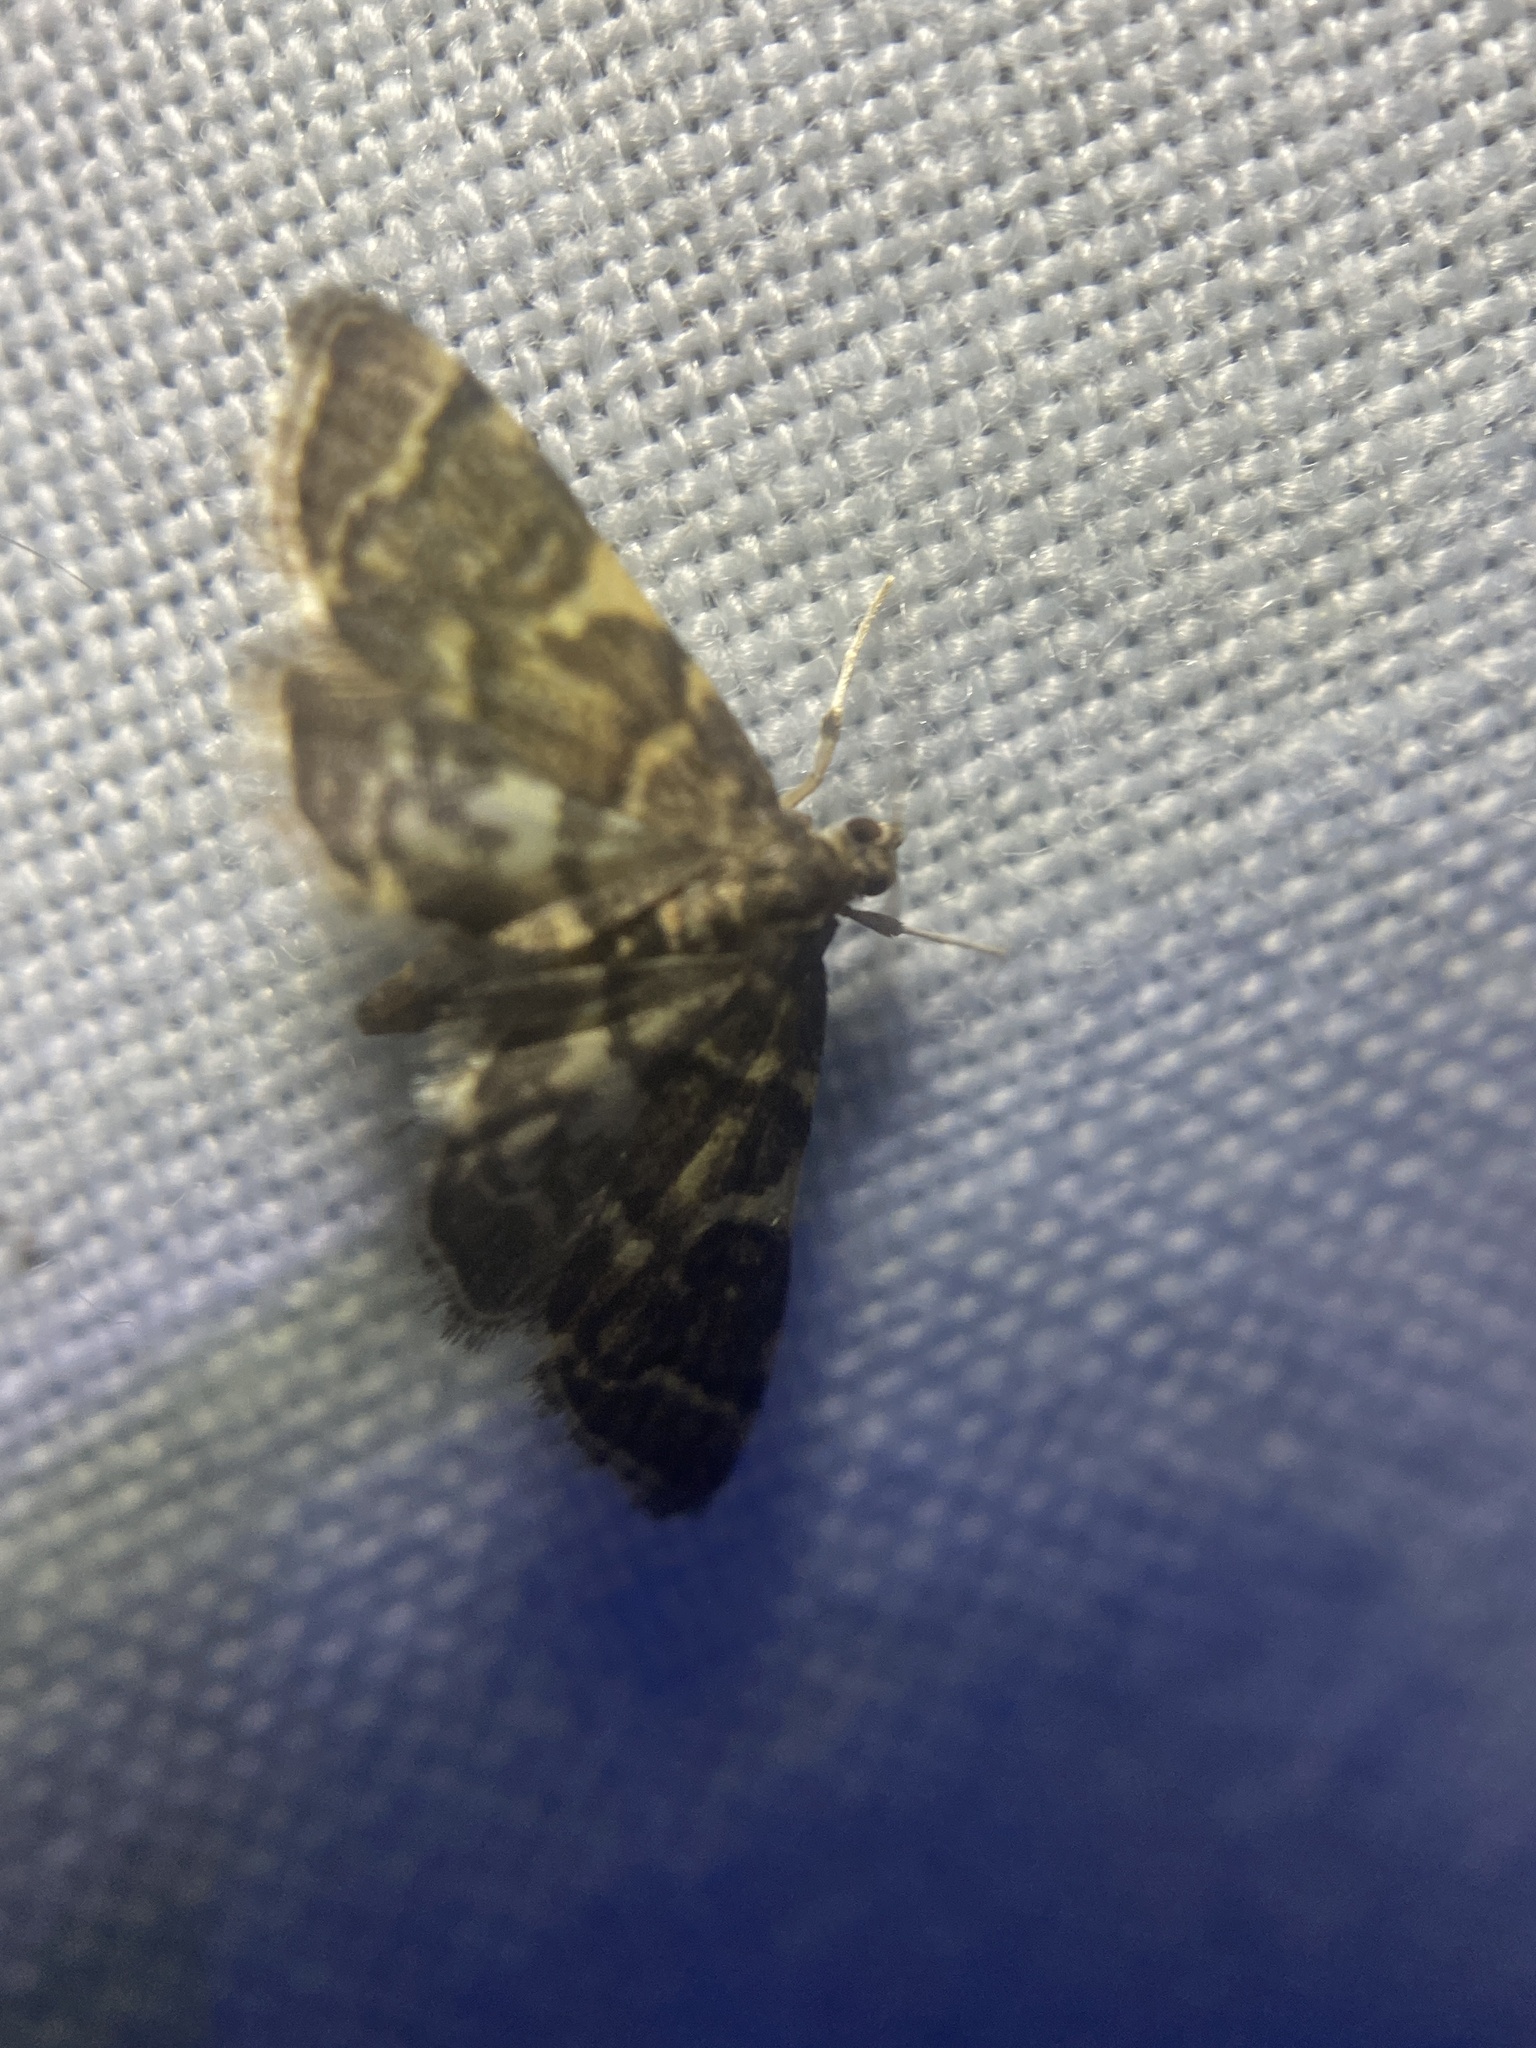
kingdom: Animalia
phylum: Arthropoda
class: Insecta
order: Lepidoptera
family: Crambidae
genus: Anageshna
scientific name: Anageshna primordialis
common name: Yellow-spotted webworm moth
